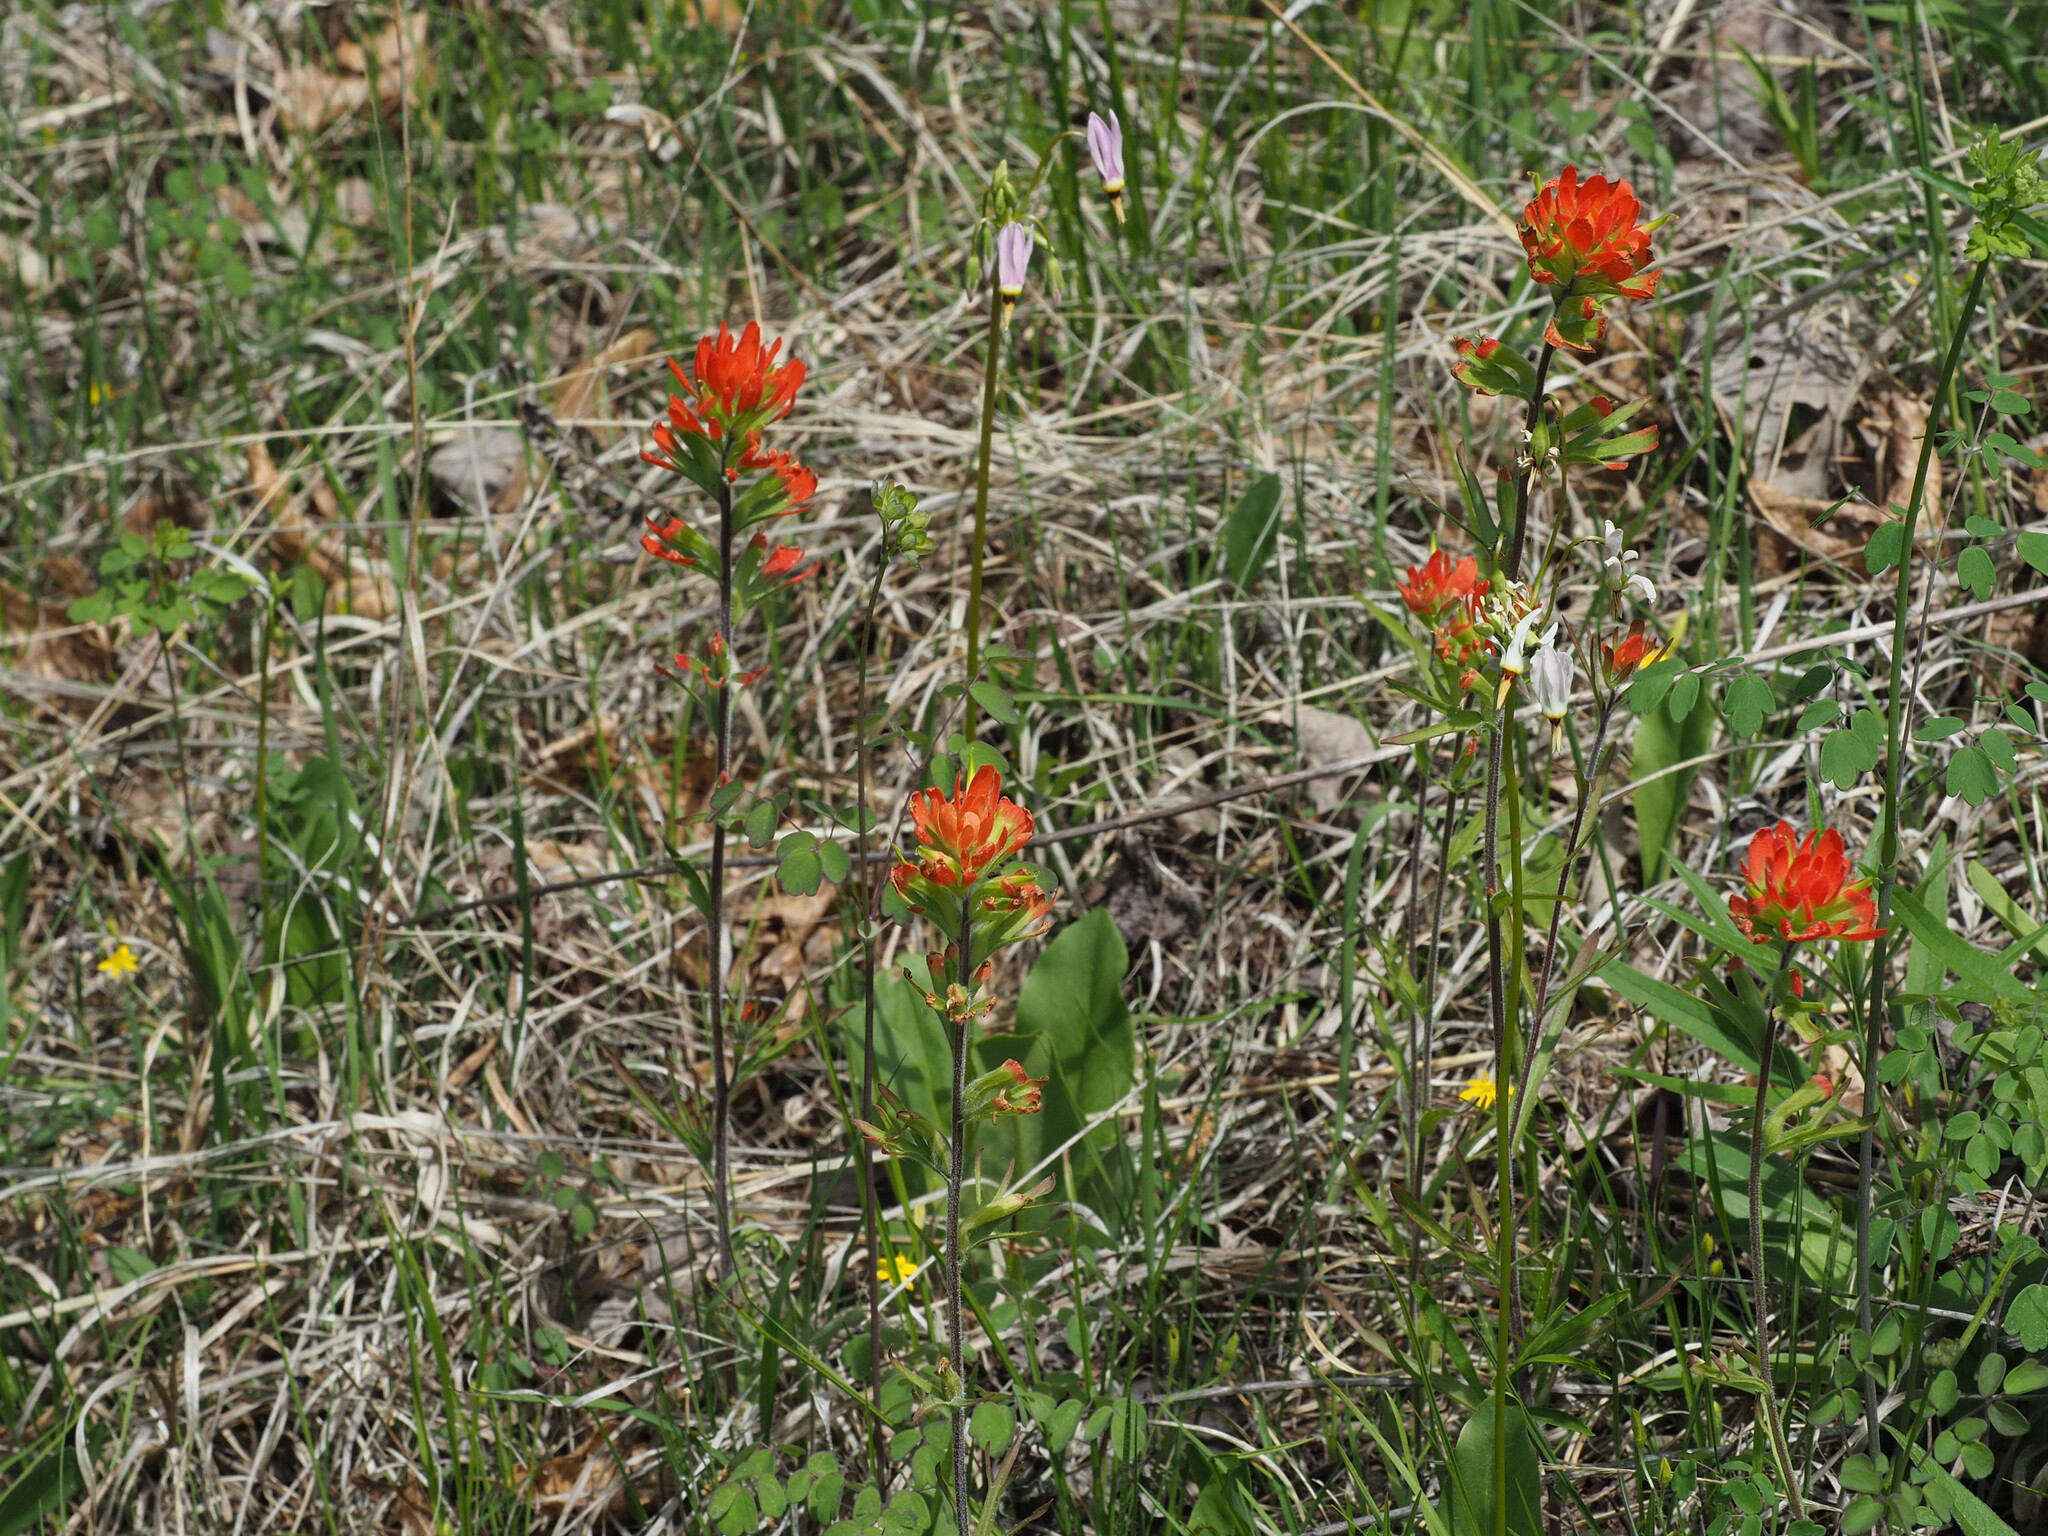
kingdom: Plantae
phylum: Tracheophyta
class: Magnoliopsida
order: Lamiales
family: Orobanchaceae
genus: Castilleja
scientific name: Castilleja coccinea
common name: Scarlet paintbrush
